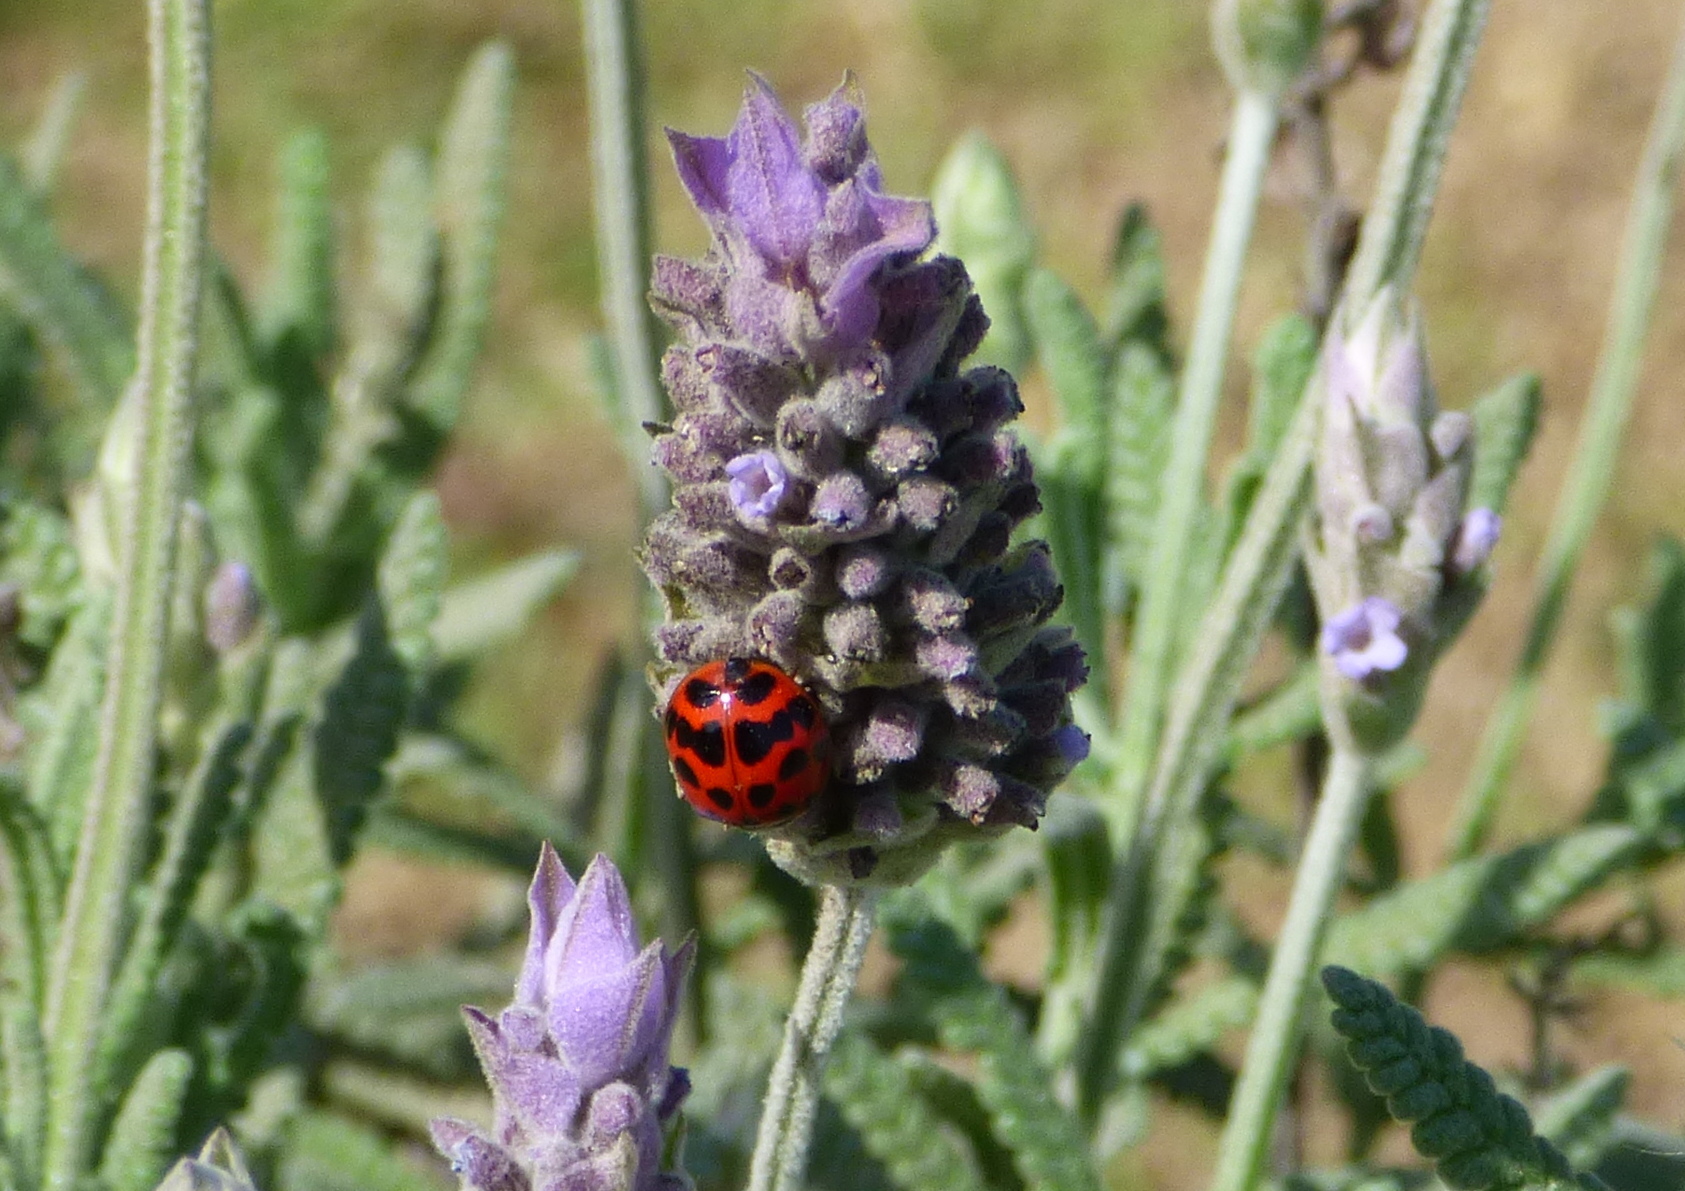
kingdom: Animalia
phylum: Arthropoda
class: Insecta
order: Coleoptera
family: Coccinellidae
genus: Harmonia
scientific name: Harmonia axyridis
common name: Harlequin ladybird
